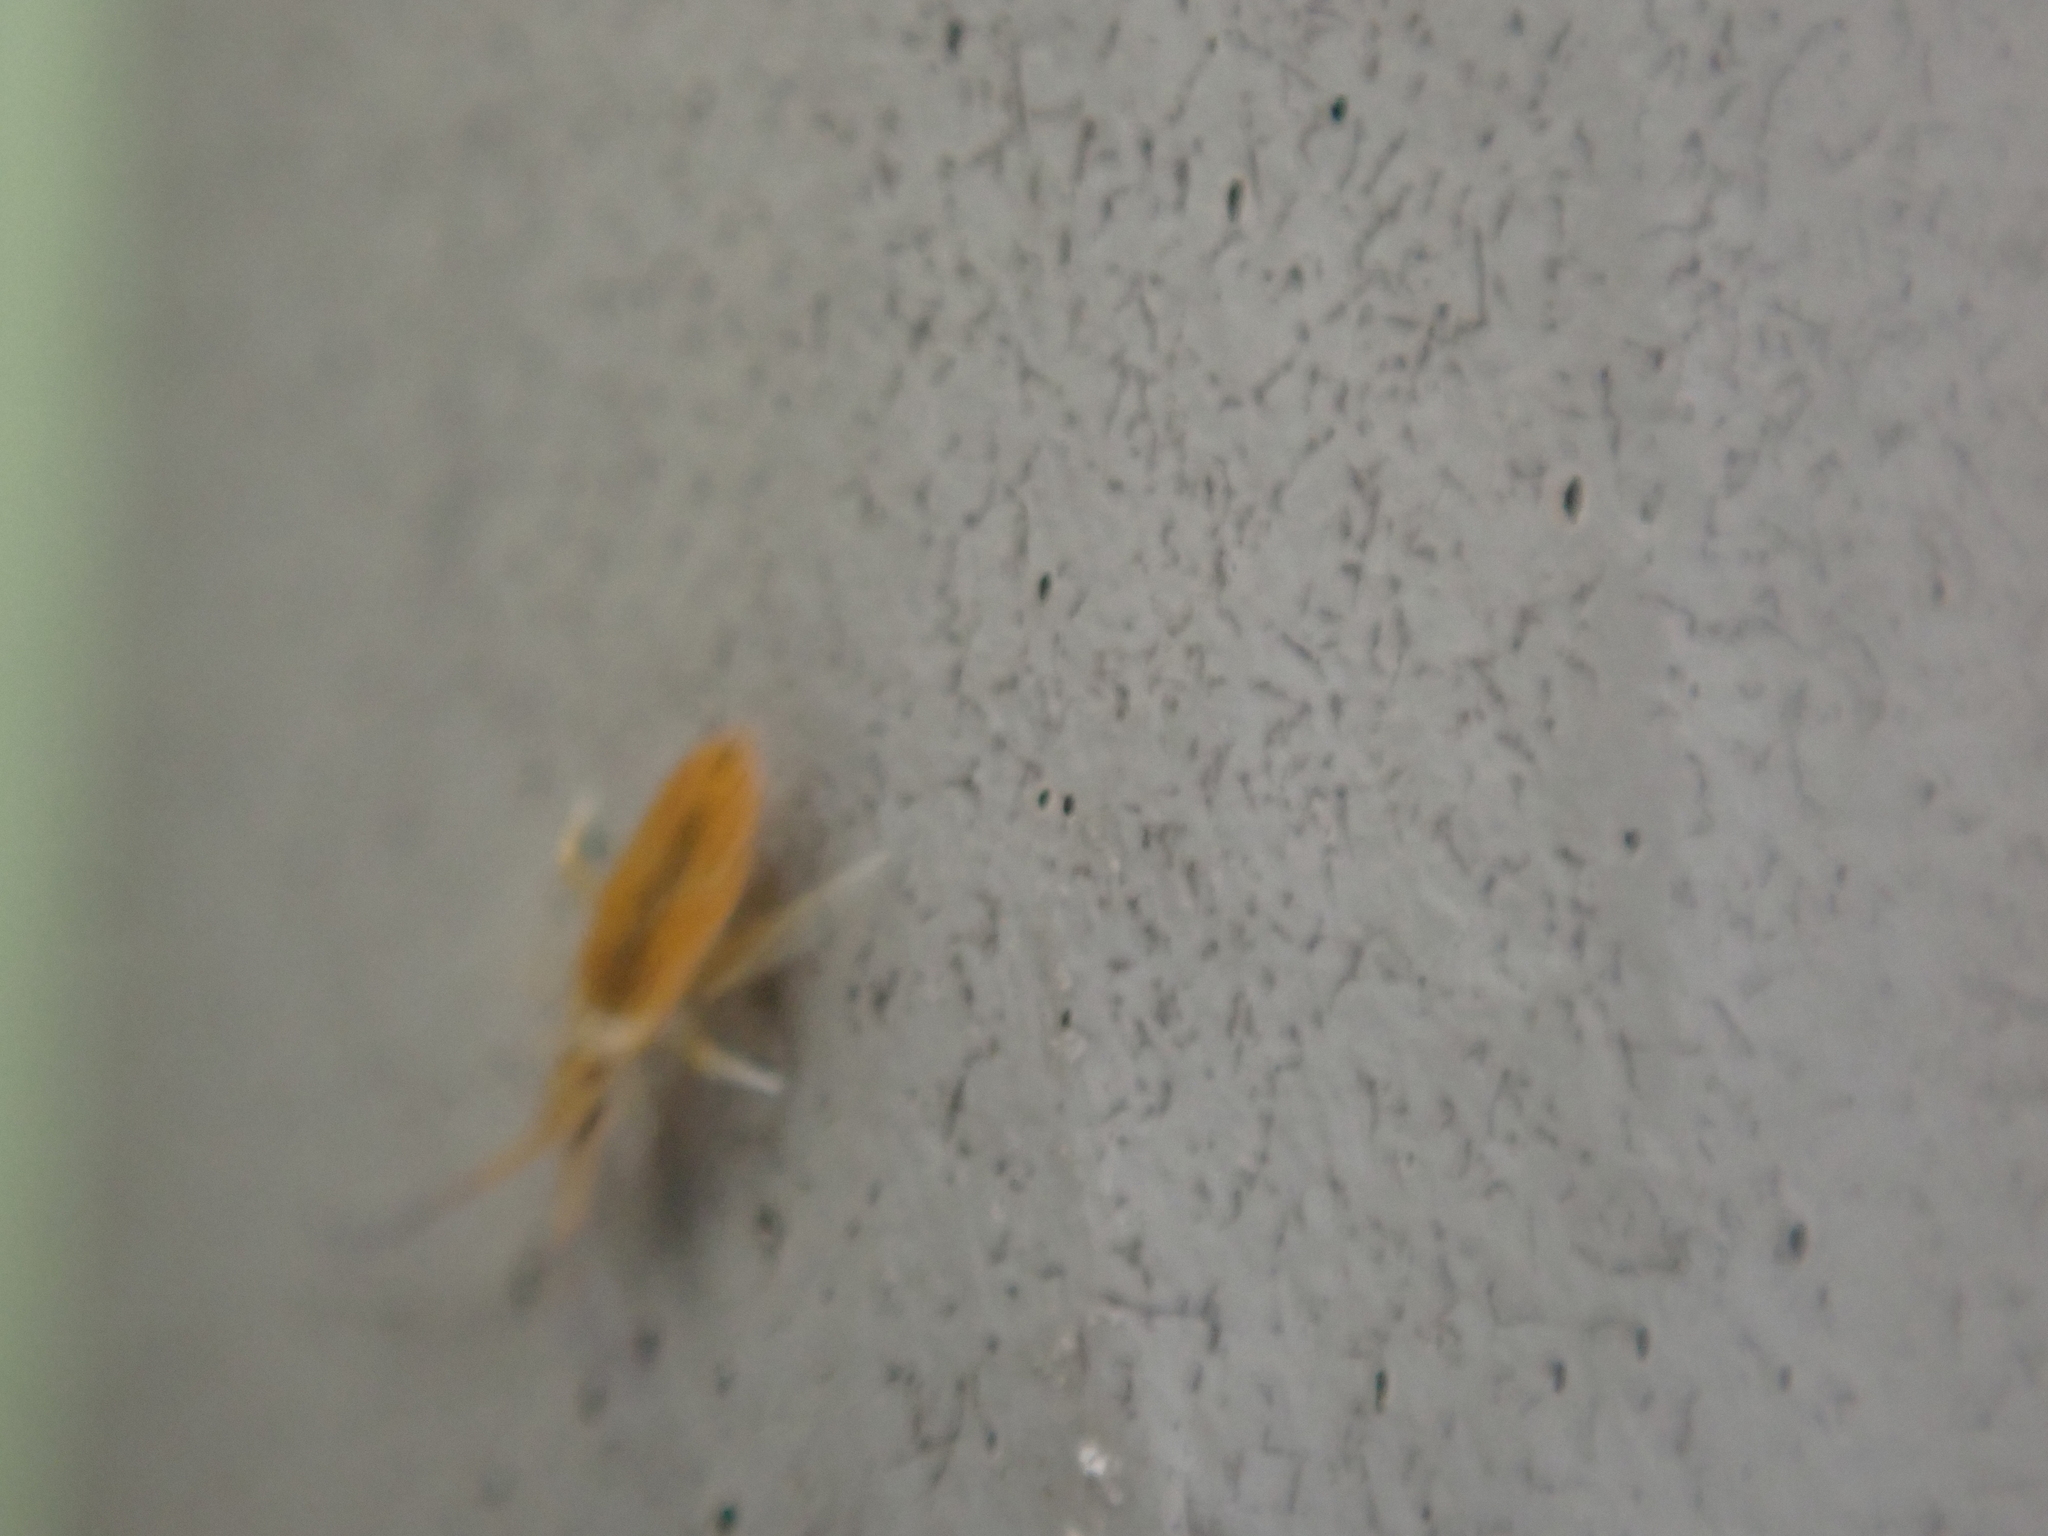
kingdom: Animalia
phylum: Arthropoda
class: Collembola
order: Entomobryomorpha
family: Entomobryidae
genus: Entomobrya
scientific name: Entomobrya atrocincta
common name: Springtail
